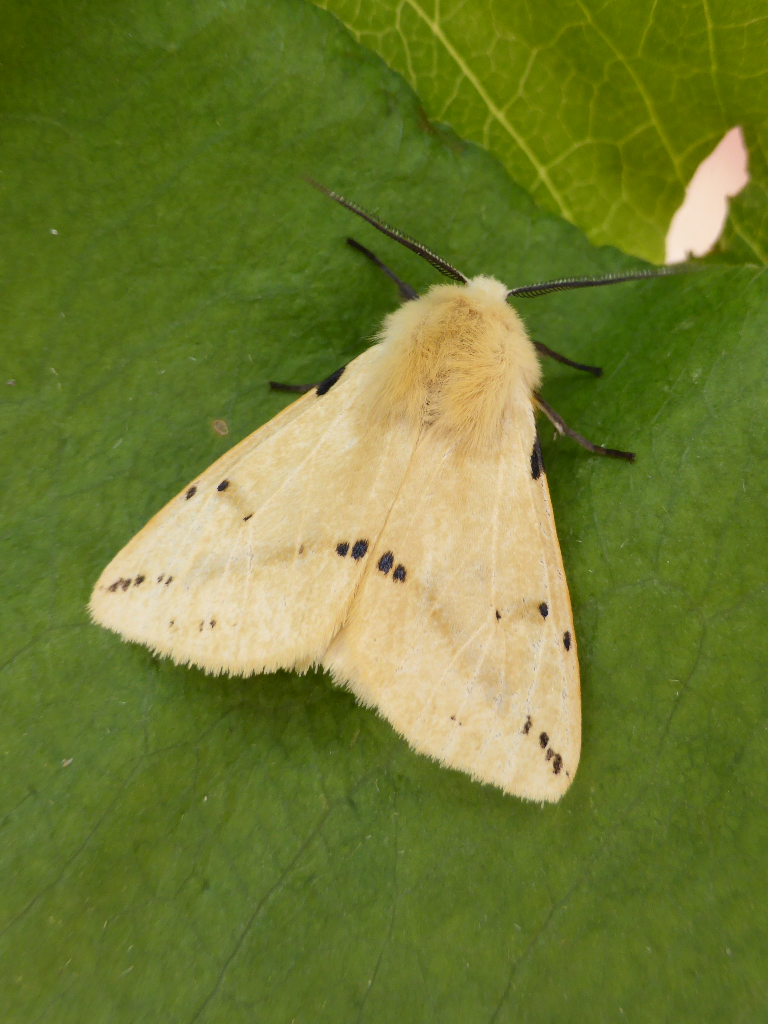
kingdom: Animalia
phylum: Arthropoda
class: Insecta
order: Lepidoptera
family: Erebidae
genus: Spilarctia
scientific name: Spilarctia lutea
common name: Buff ermine
